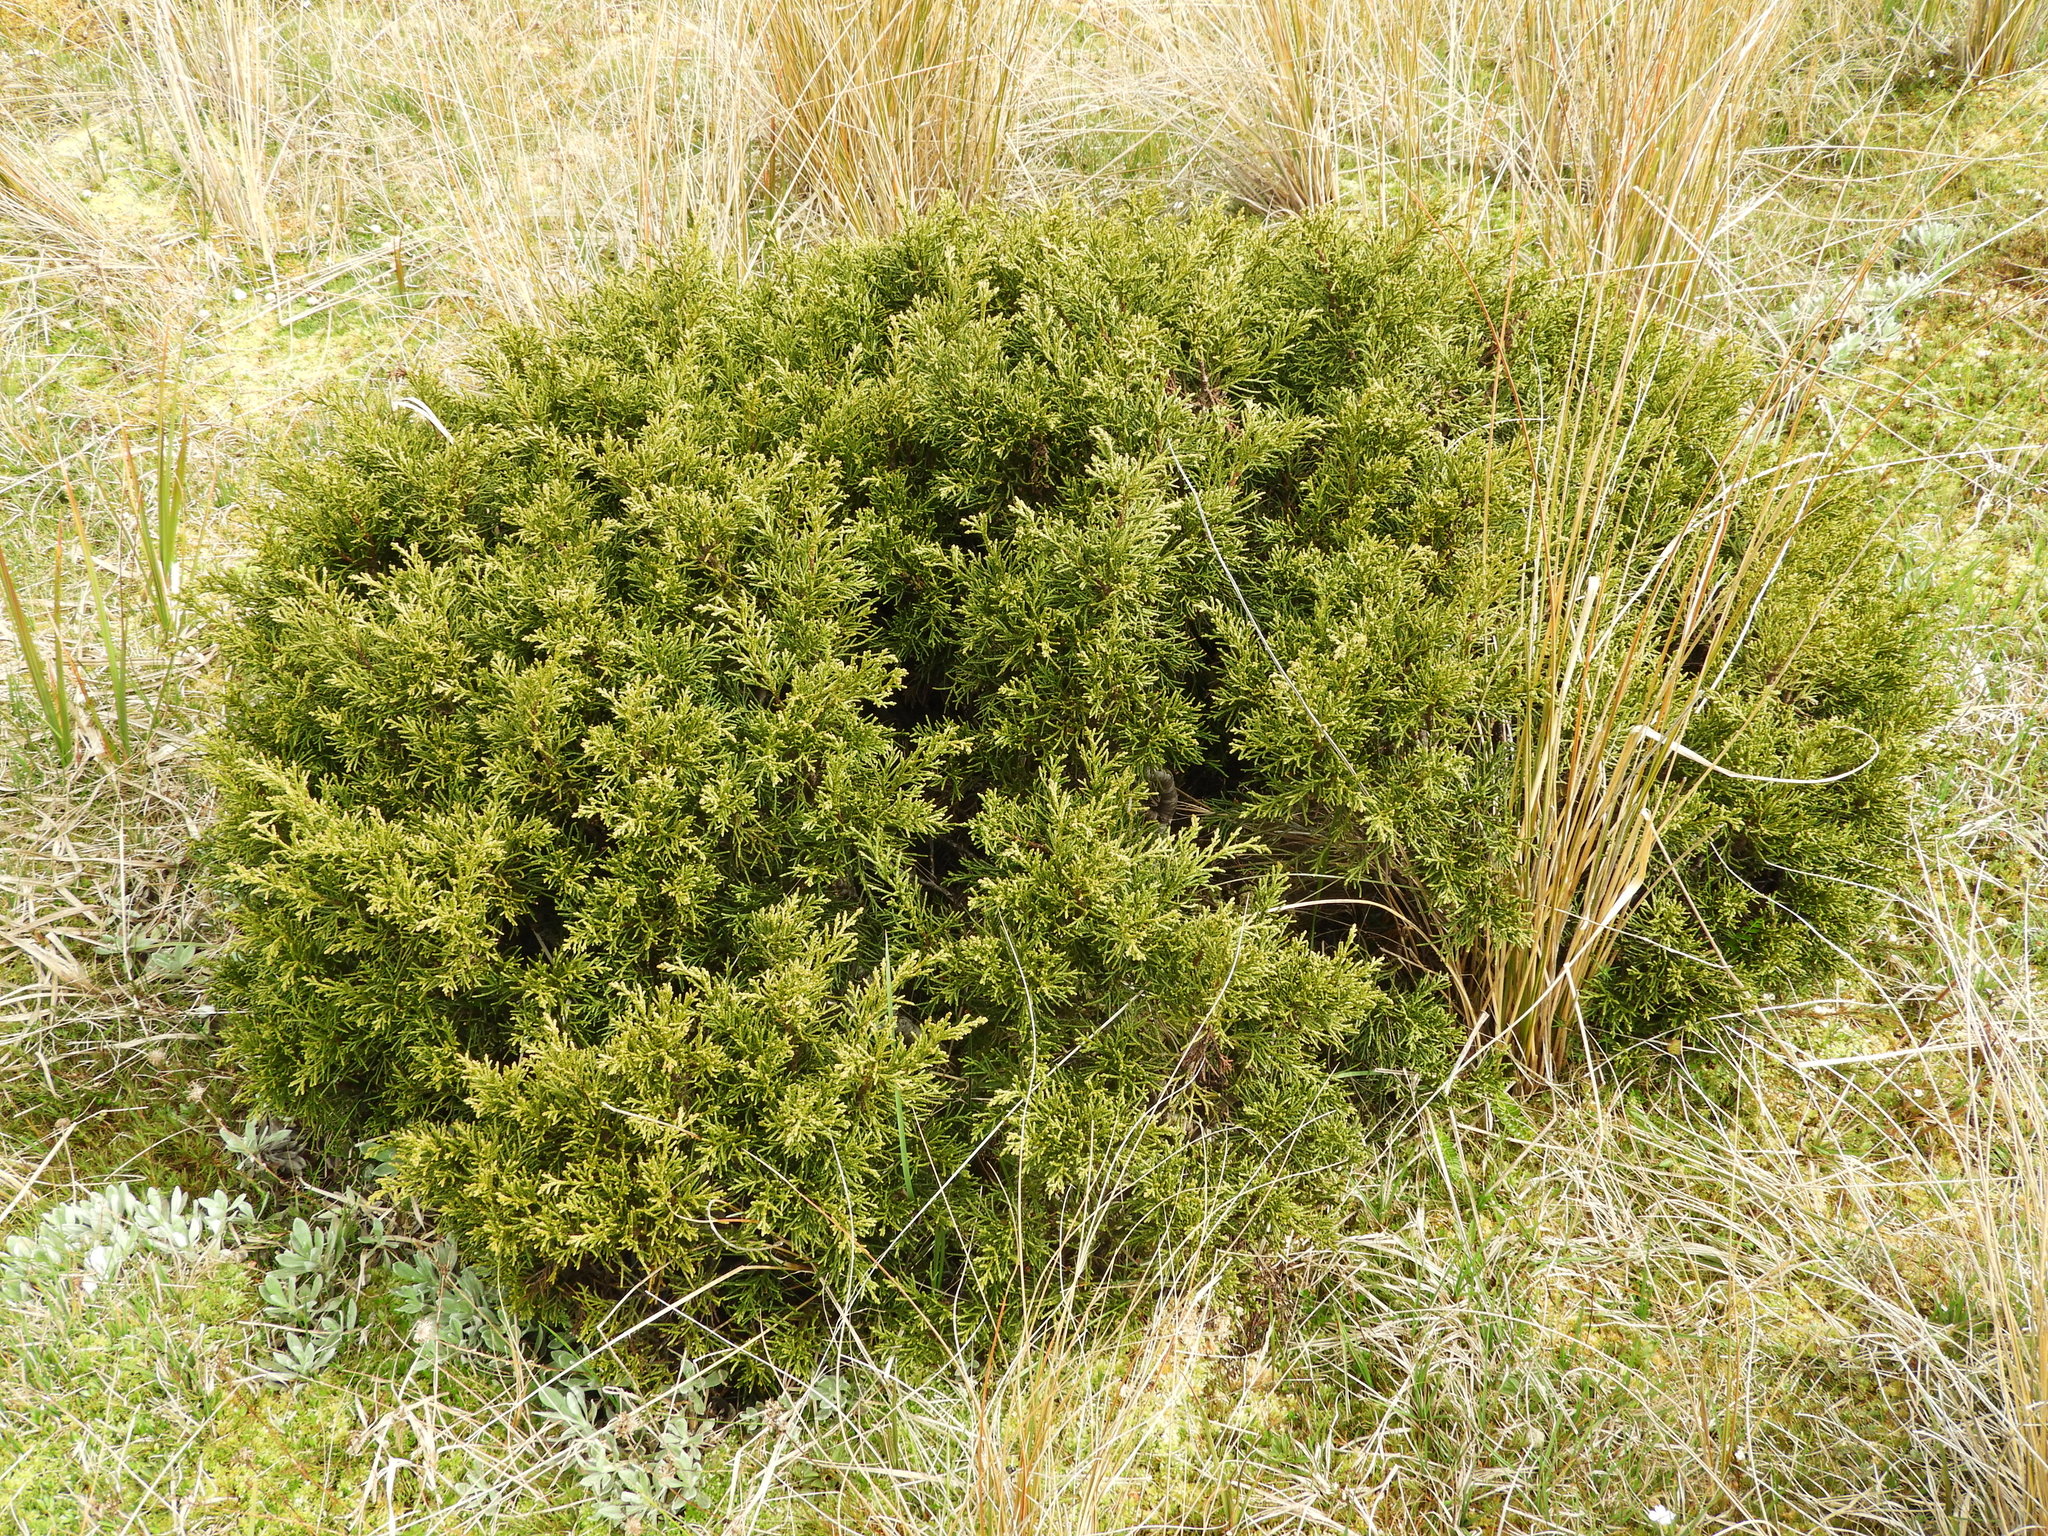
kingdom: Plantae
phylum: Tracheophyta
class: Pinopsida
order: Pinales
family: Podocarpaceae
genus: Halocarpus
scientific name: Halocarpus bidwillii
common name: Bog pine
